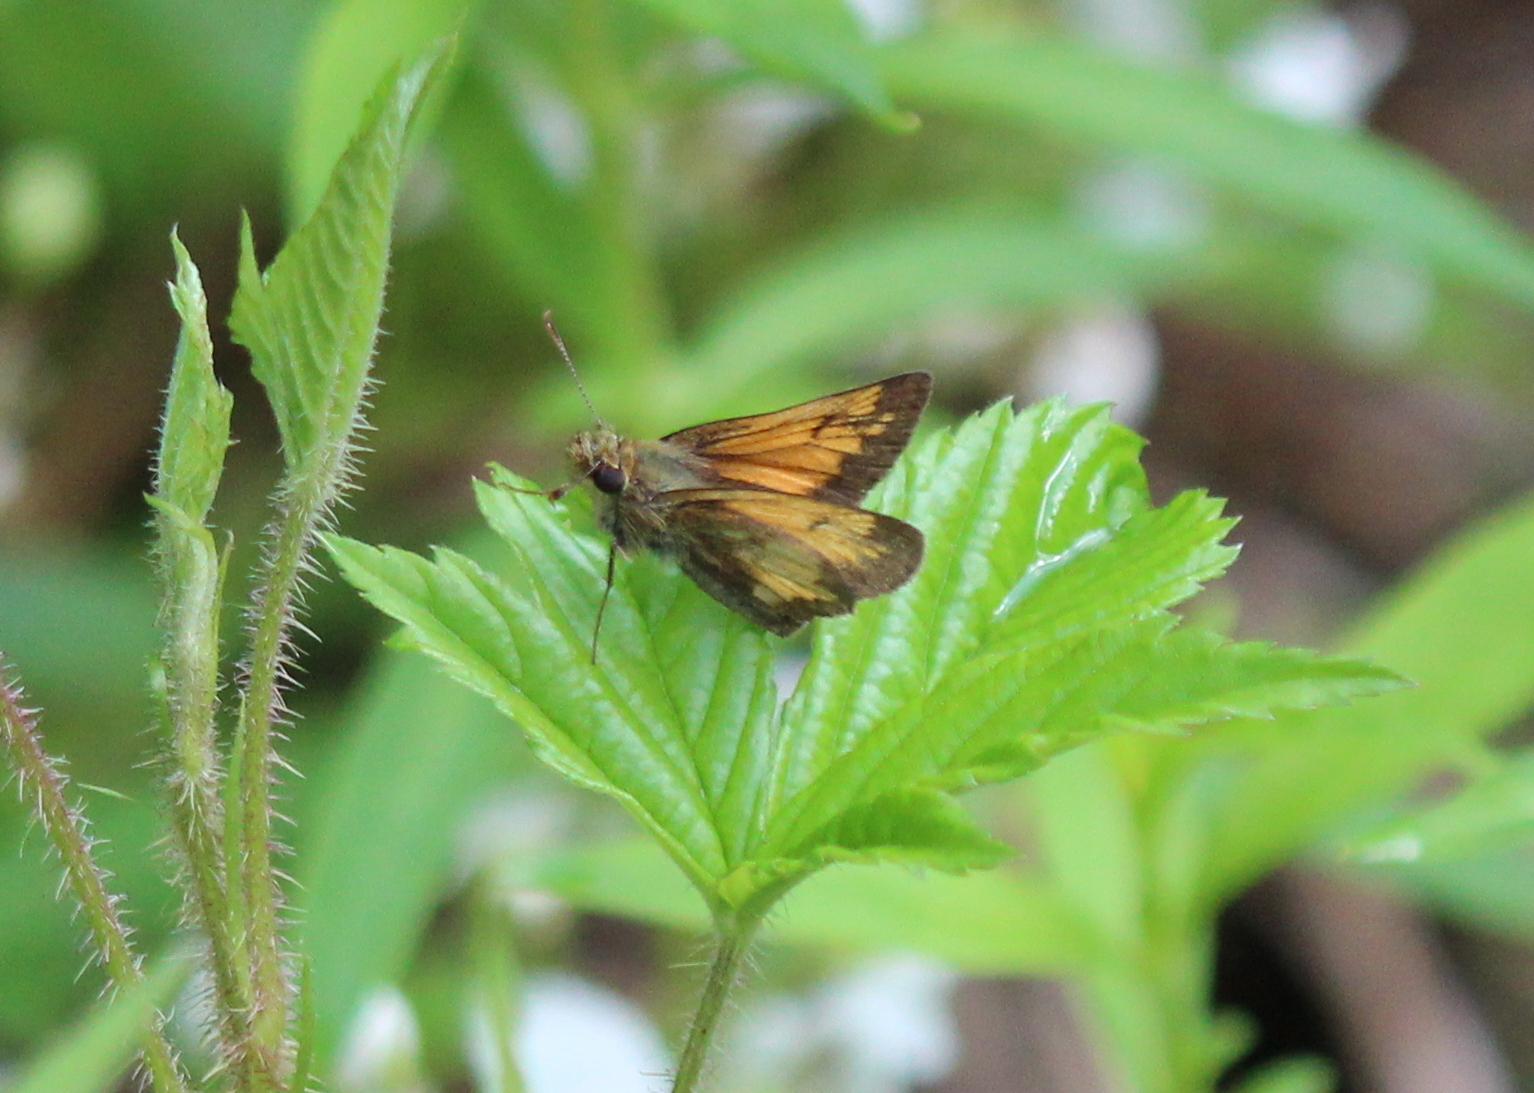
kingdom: Animalia
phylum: Arthropoda
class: Insecta
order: Lepidoptera
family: Hesperiidae
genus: Lon
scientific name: Lon hobomok
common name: Hobomok skipper
